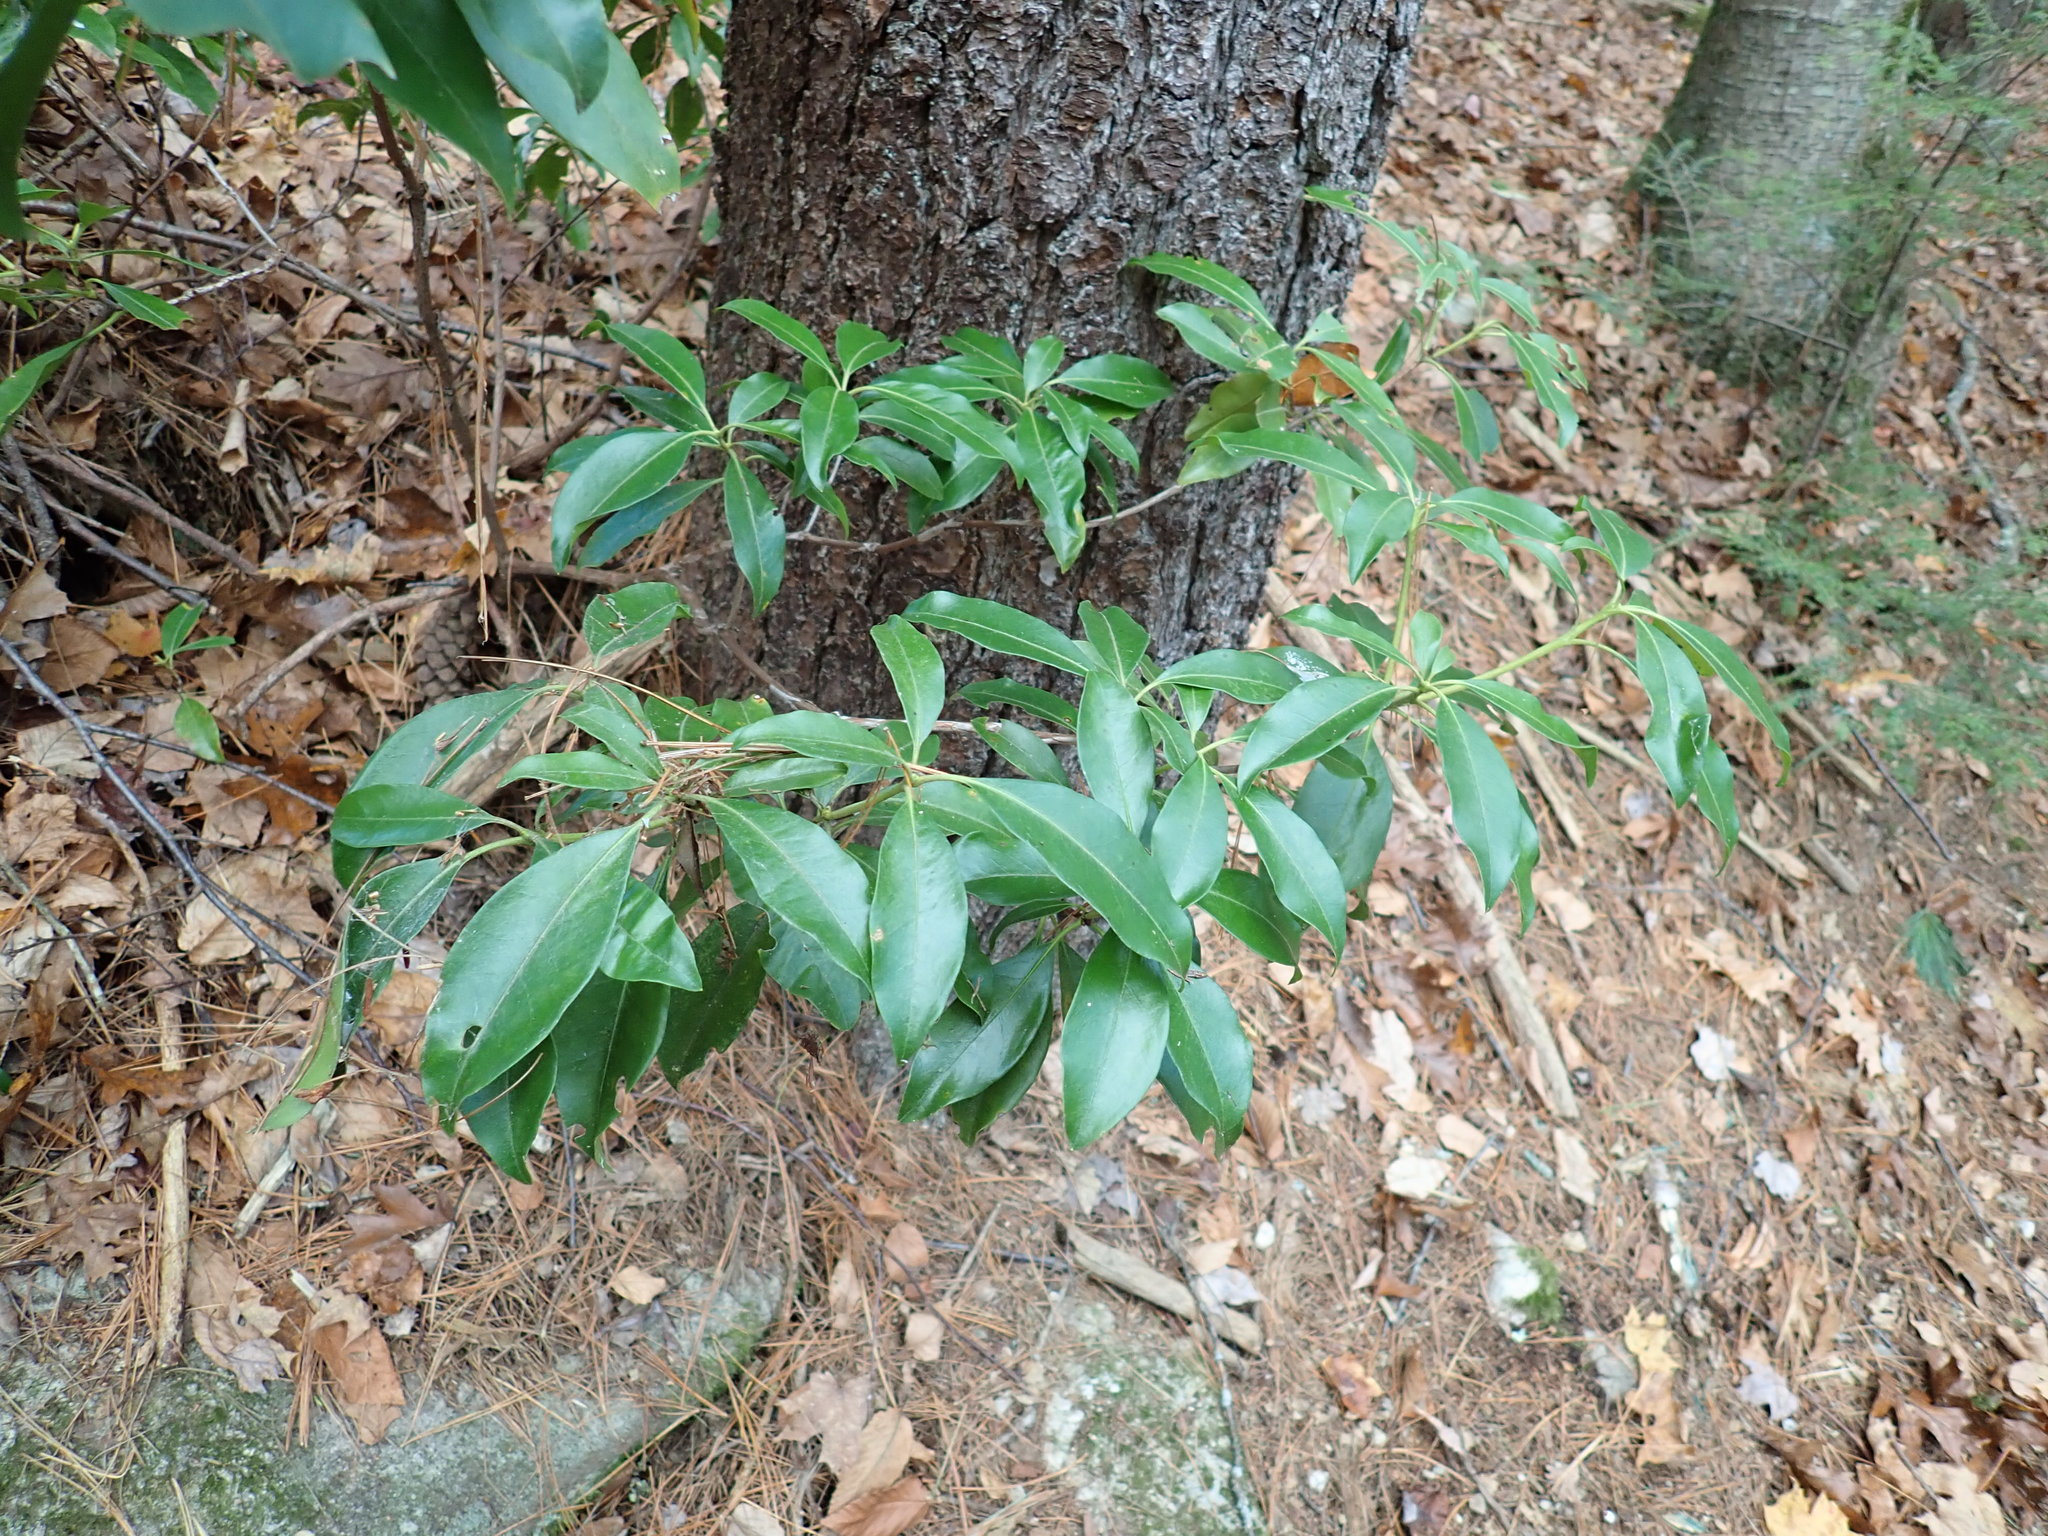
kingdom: Plantae
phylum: Tracheophyta
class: Magnoliopsida
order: Ericales
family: Ericaceae
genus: Kalmia
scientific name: Kalmia latifolia
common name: Mountain-laurel
